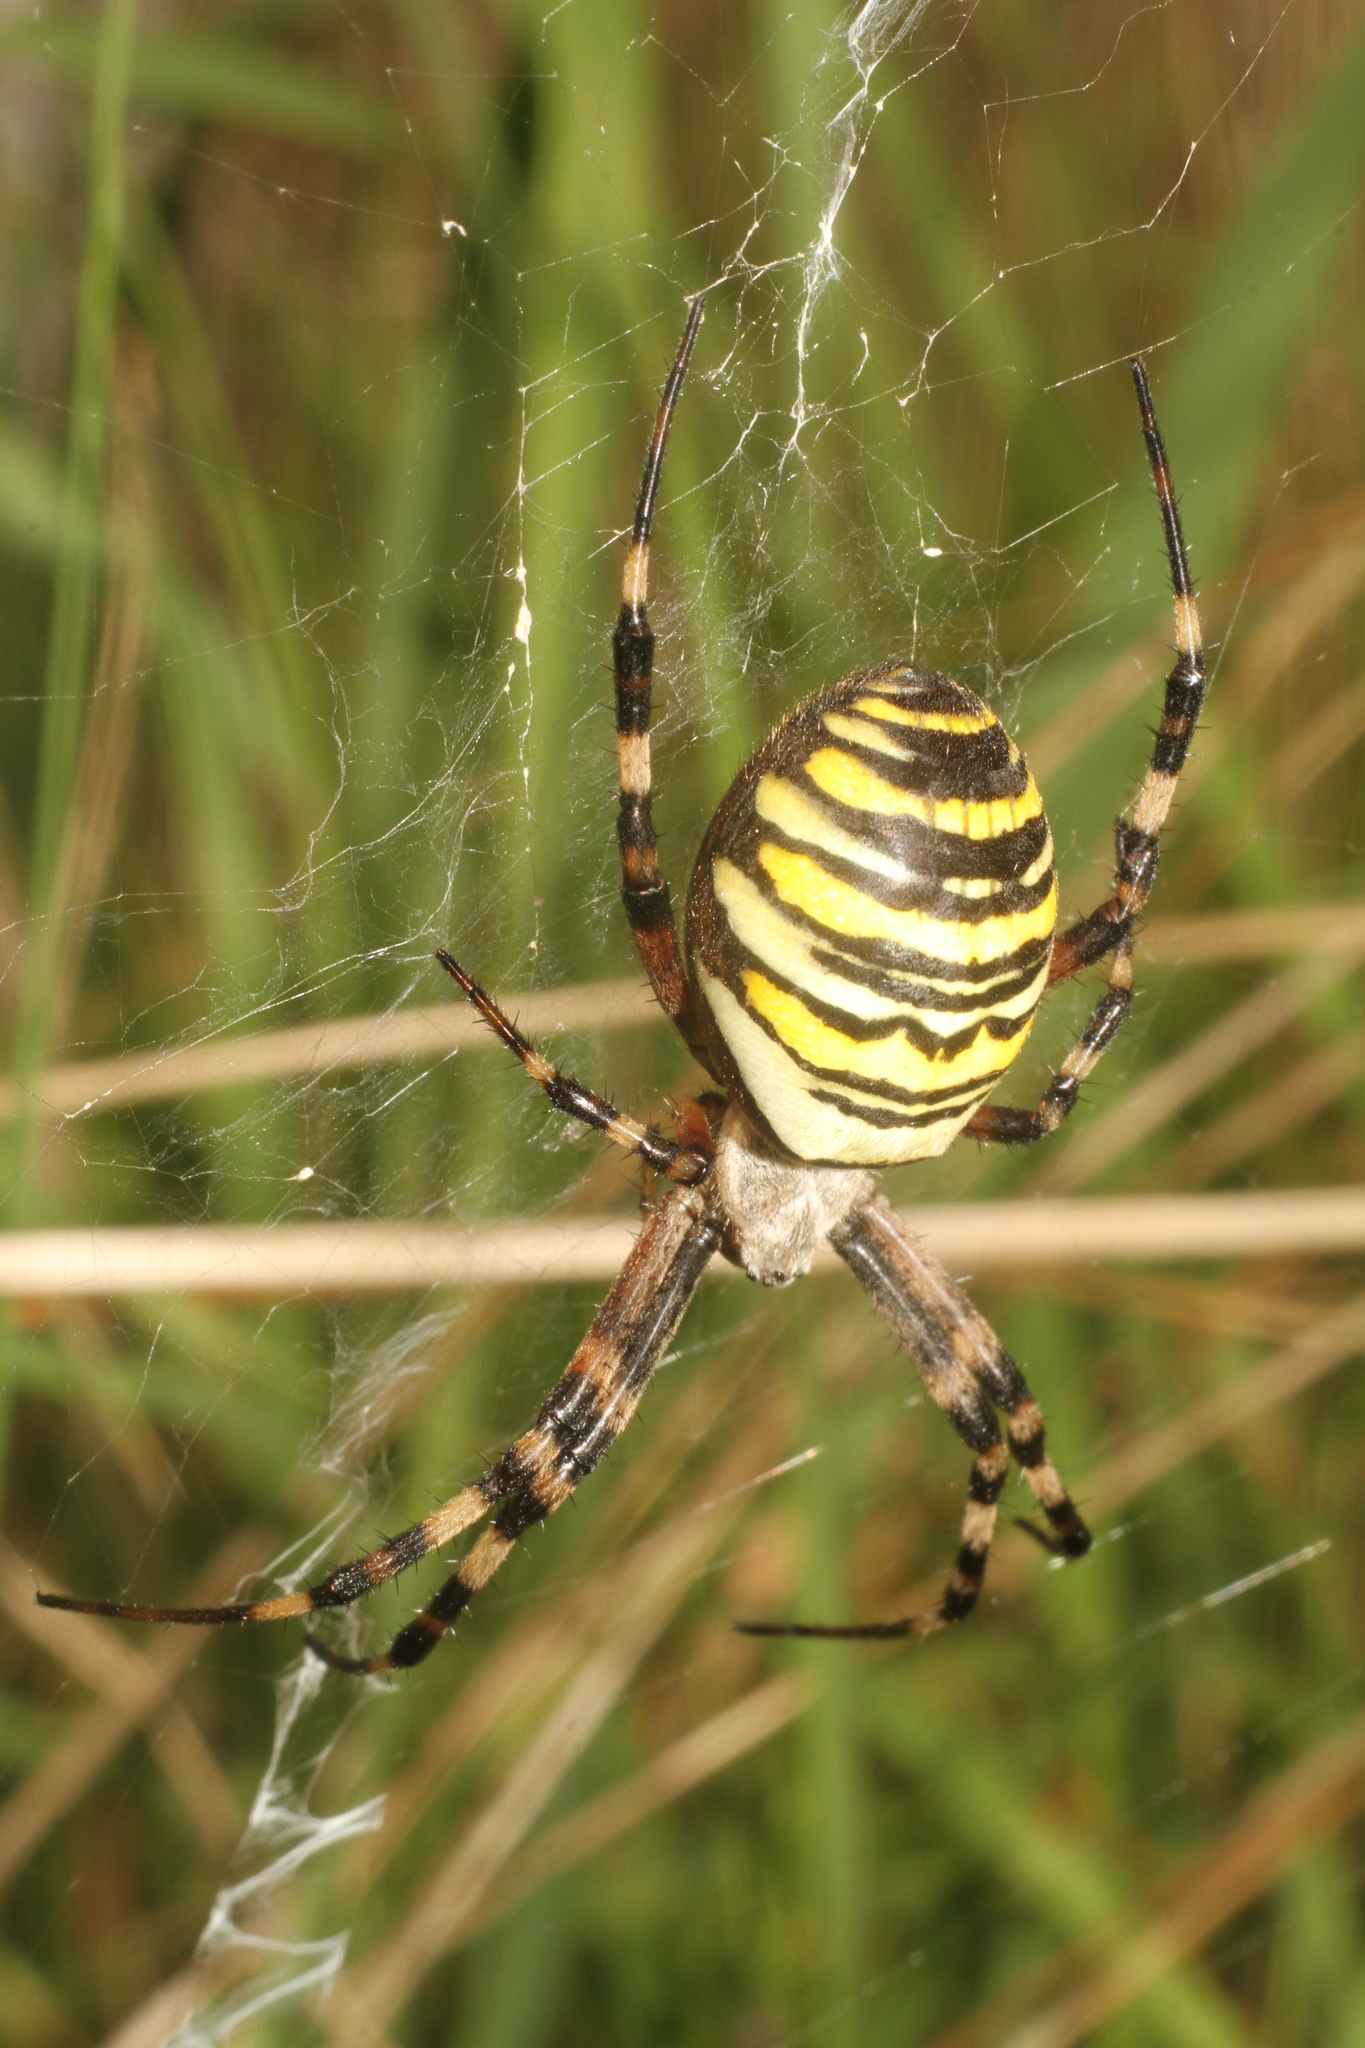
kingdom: Animalia
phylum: Arthropoda
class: Arachnida
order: Araneae
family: Araneidae
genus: Argiope
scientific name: Argiope bruennichi
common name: Wasp spider
